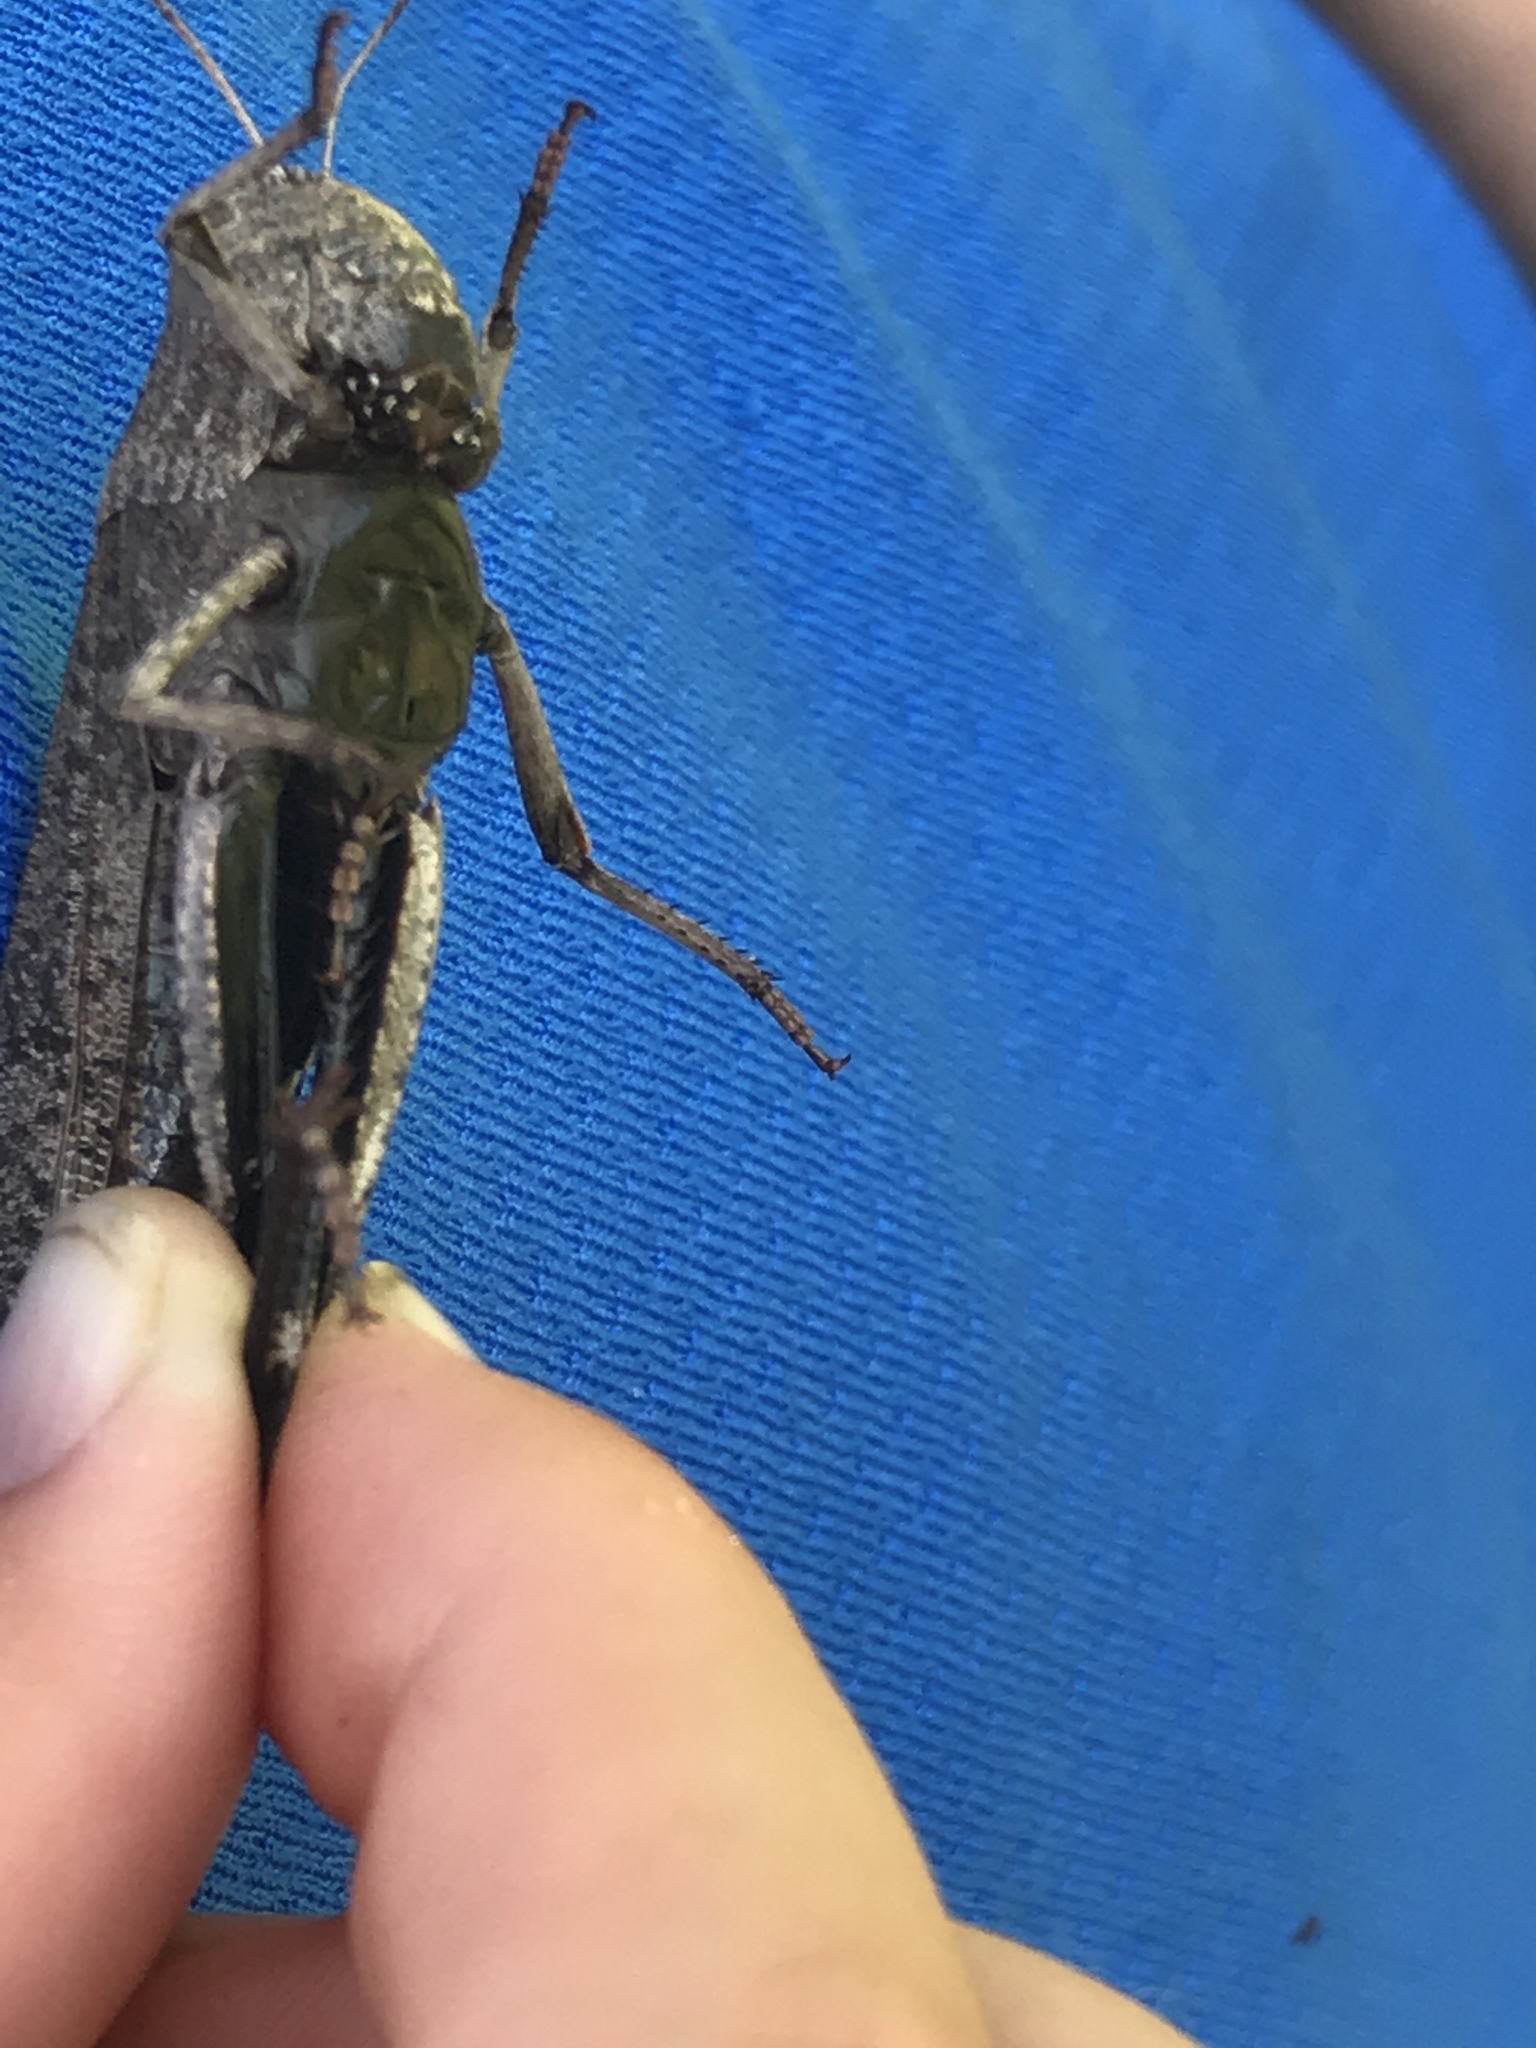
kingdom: Animalia
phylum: Arthropoda
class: Insecta
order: Orthoptera
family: Acrididae
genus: Arphia
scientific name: Arphia xanthoptera
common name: Autumn yellow-winged grasshopper
